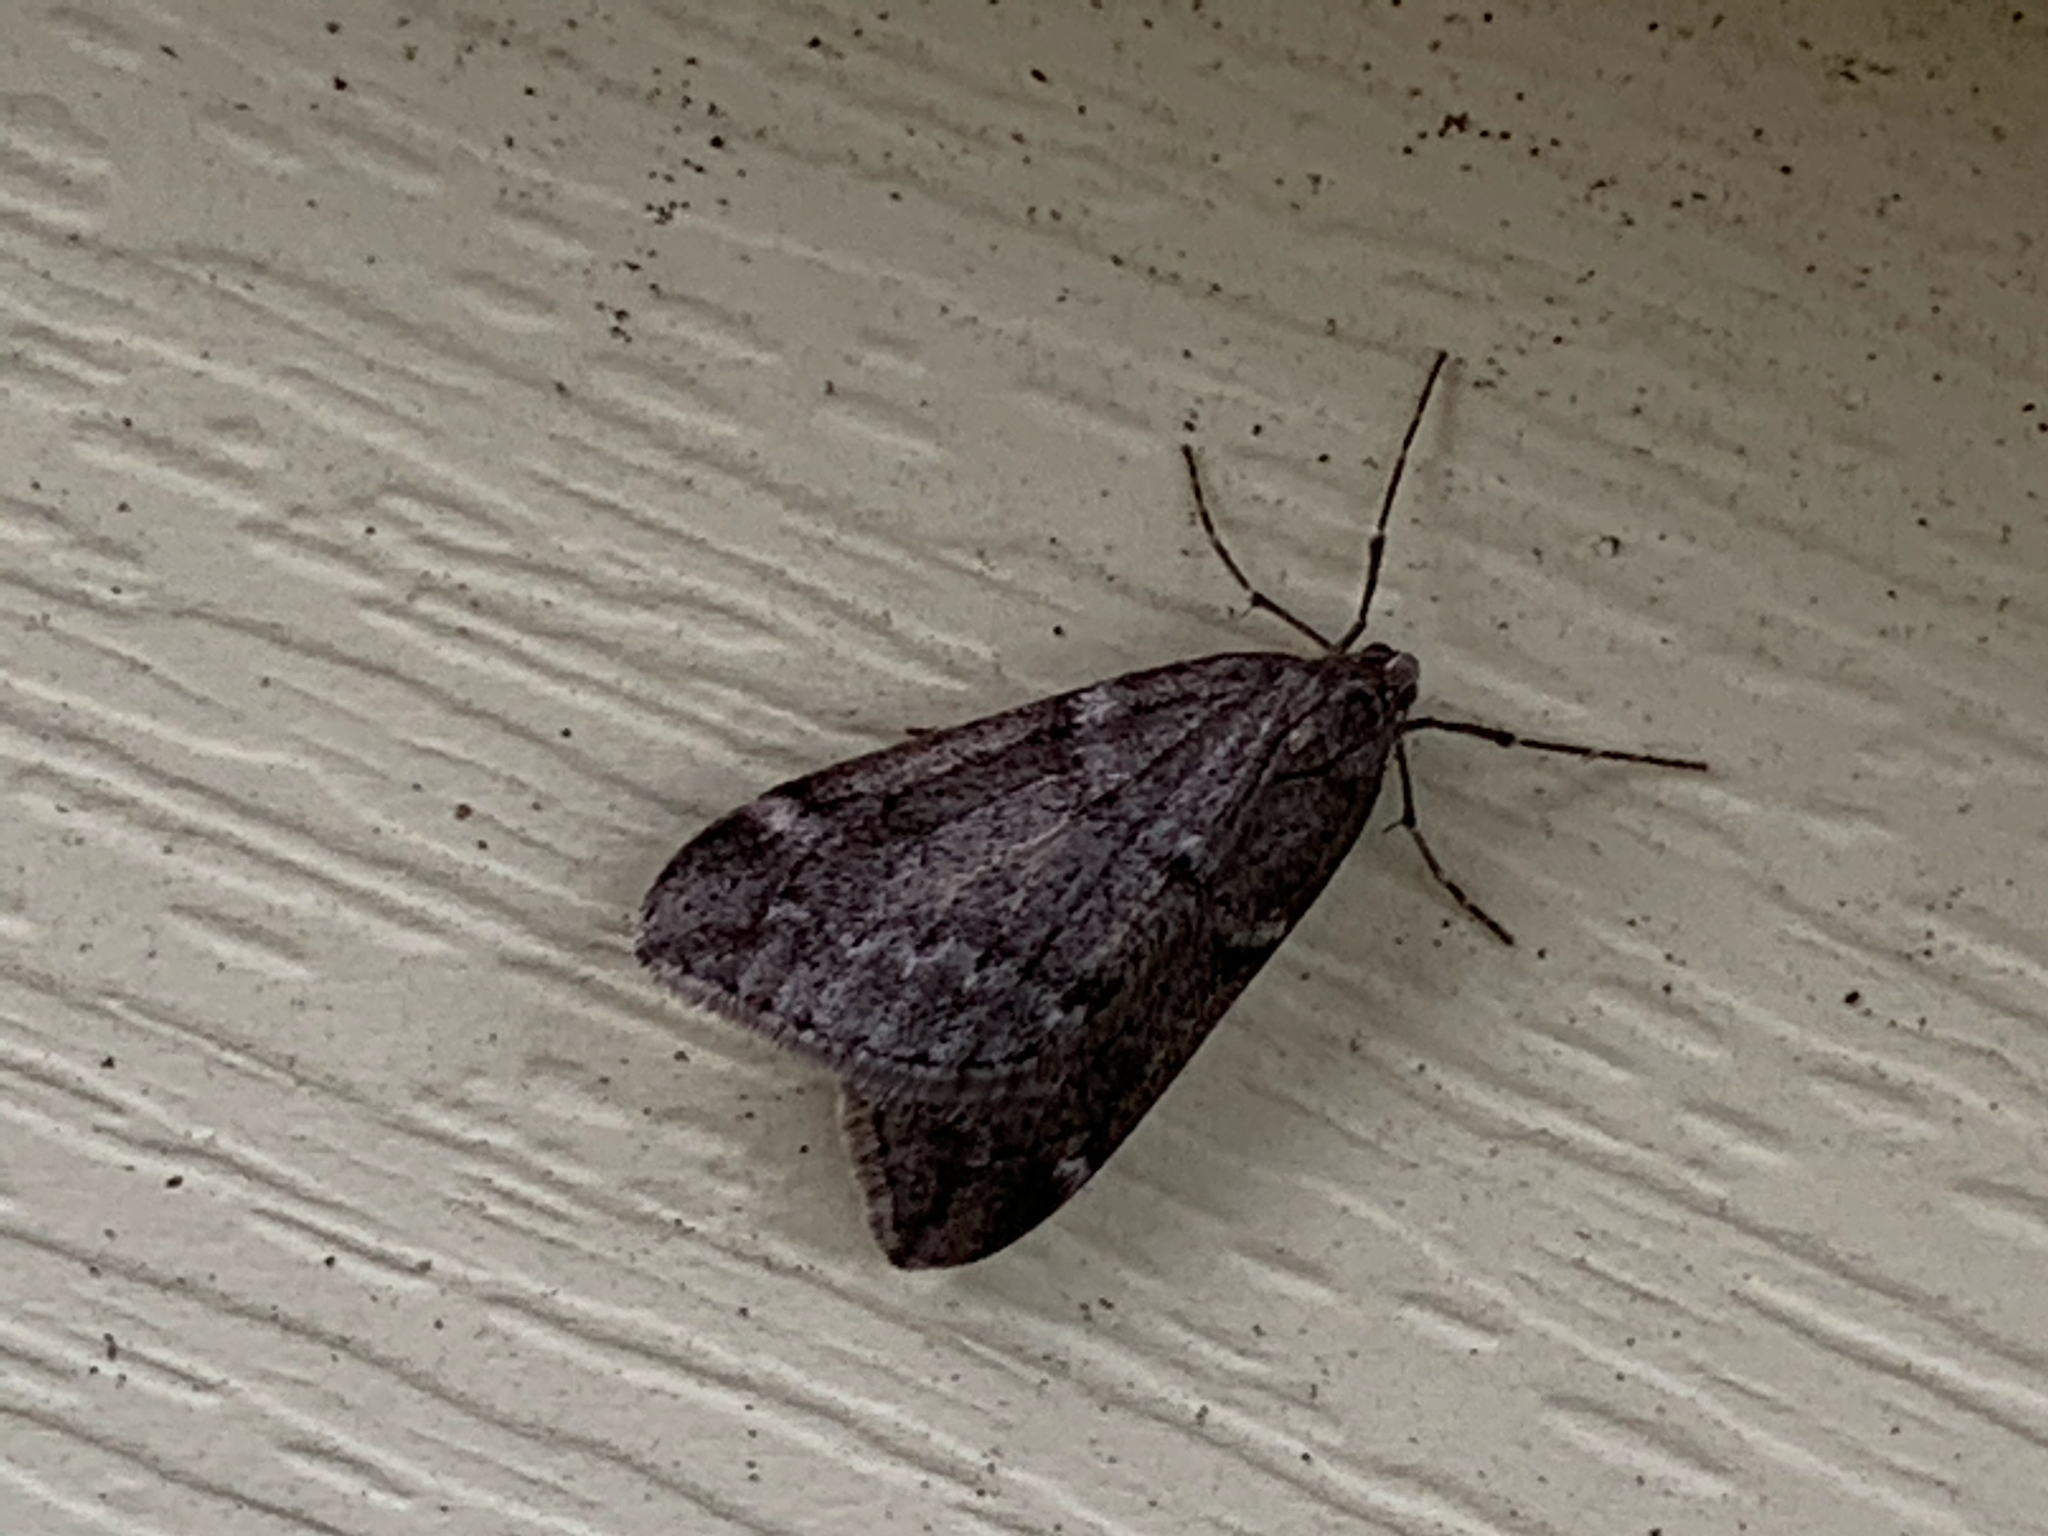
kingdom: Animalia
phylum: Arthropoda
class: Insecta
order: Lepidoptera
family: Geometridae
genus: Alsophila
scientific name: Alsophila pometaria
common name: Fall cankerworm
